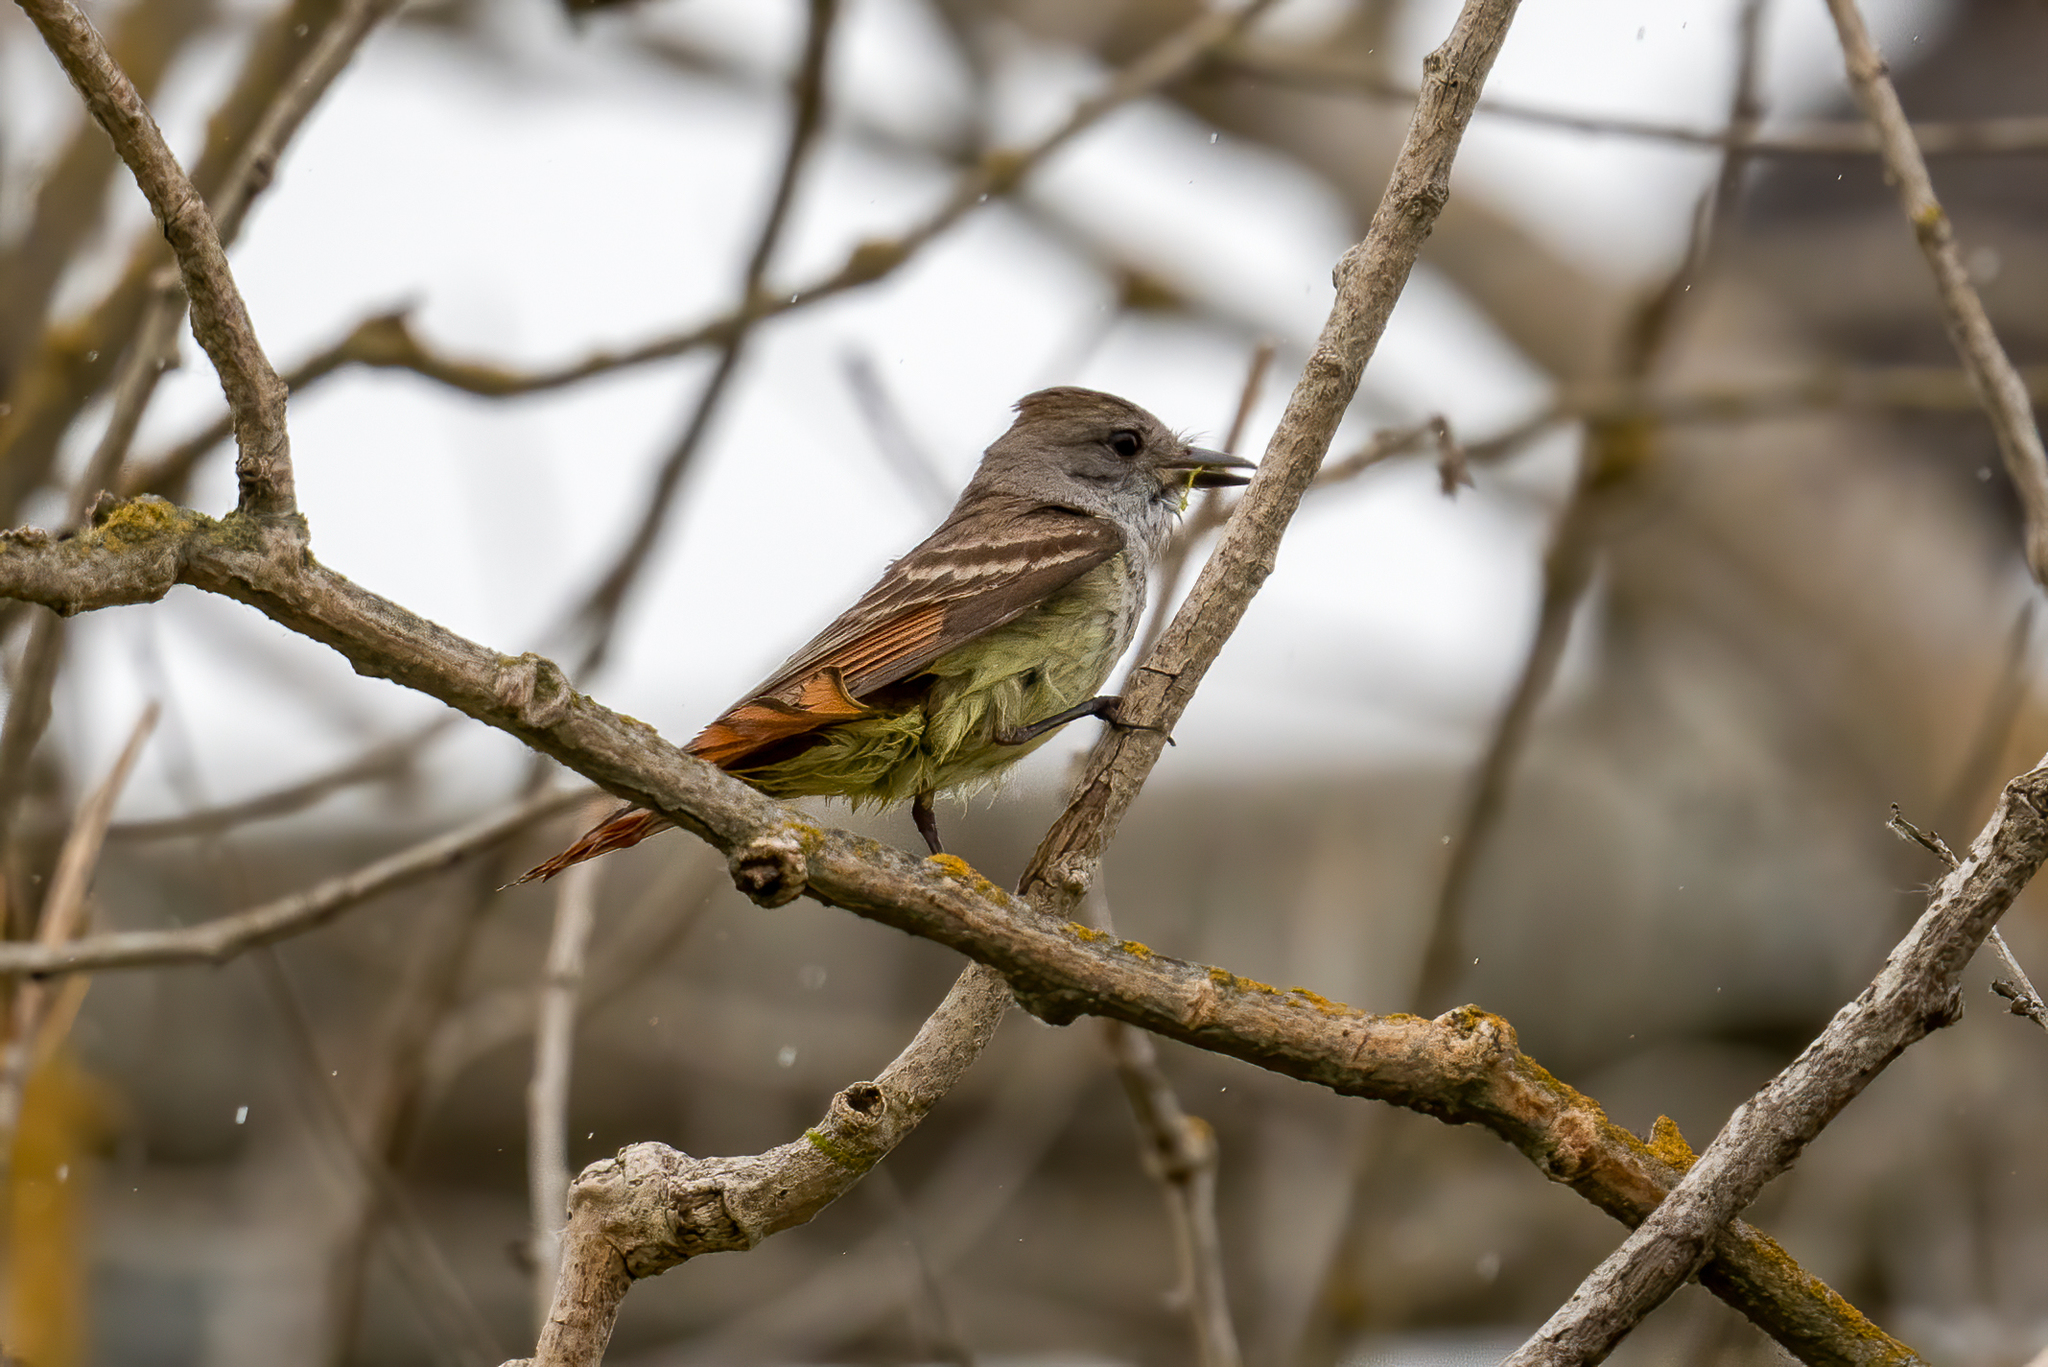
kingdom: Animalia
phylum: Chordata
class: Aves
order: Passeriformes
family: Tyrannidae
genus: Myiarchus
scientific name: Myiarchus cinerascens
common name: Ash-throated flycatcher
